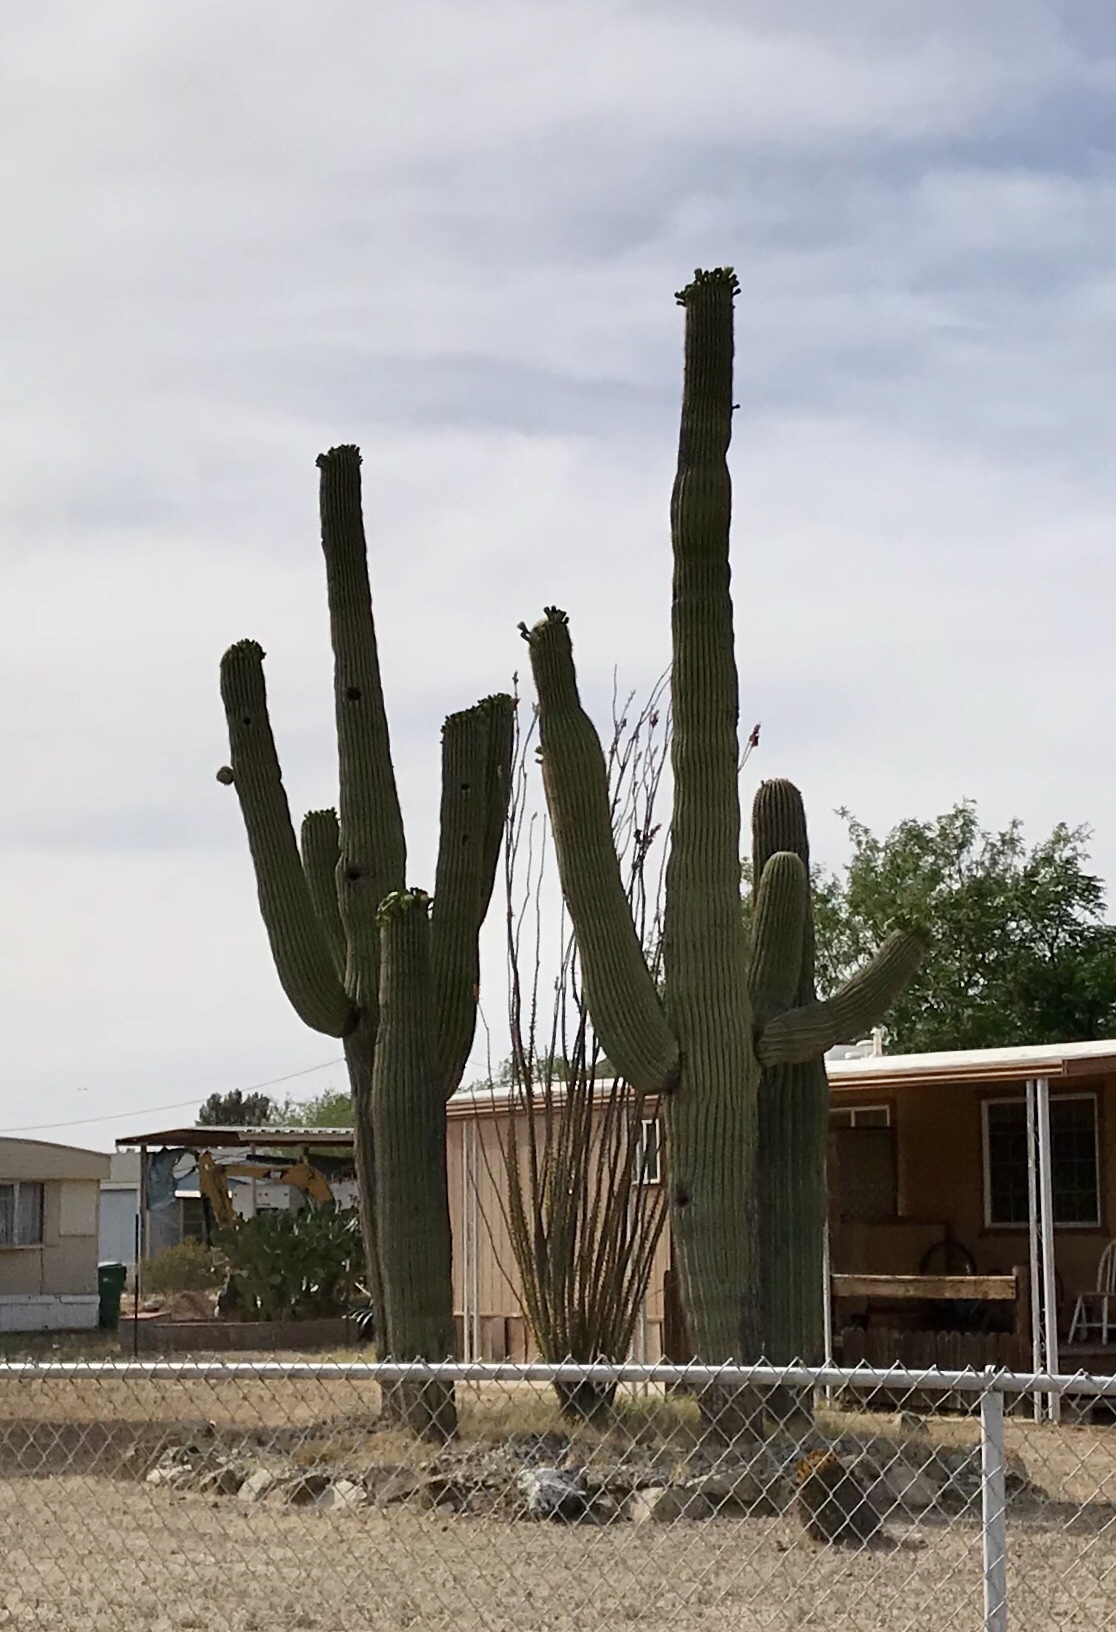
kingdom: Plantae
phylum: Tracheophyta
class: Magnoliopsida
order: Caryophyllales
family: Cactaceae
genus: Carnegiea
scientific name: Carnegiea gigantea
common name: Saguaro
